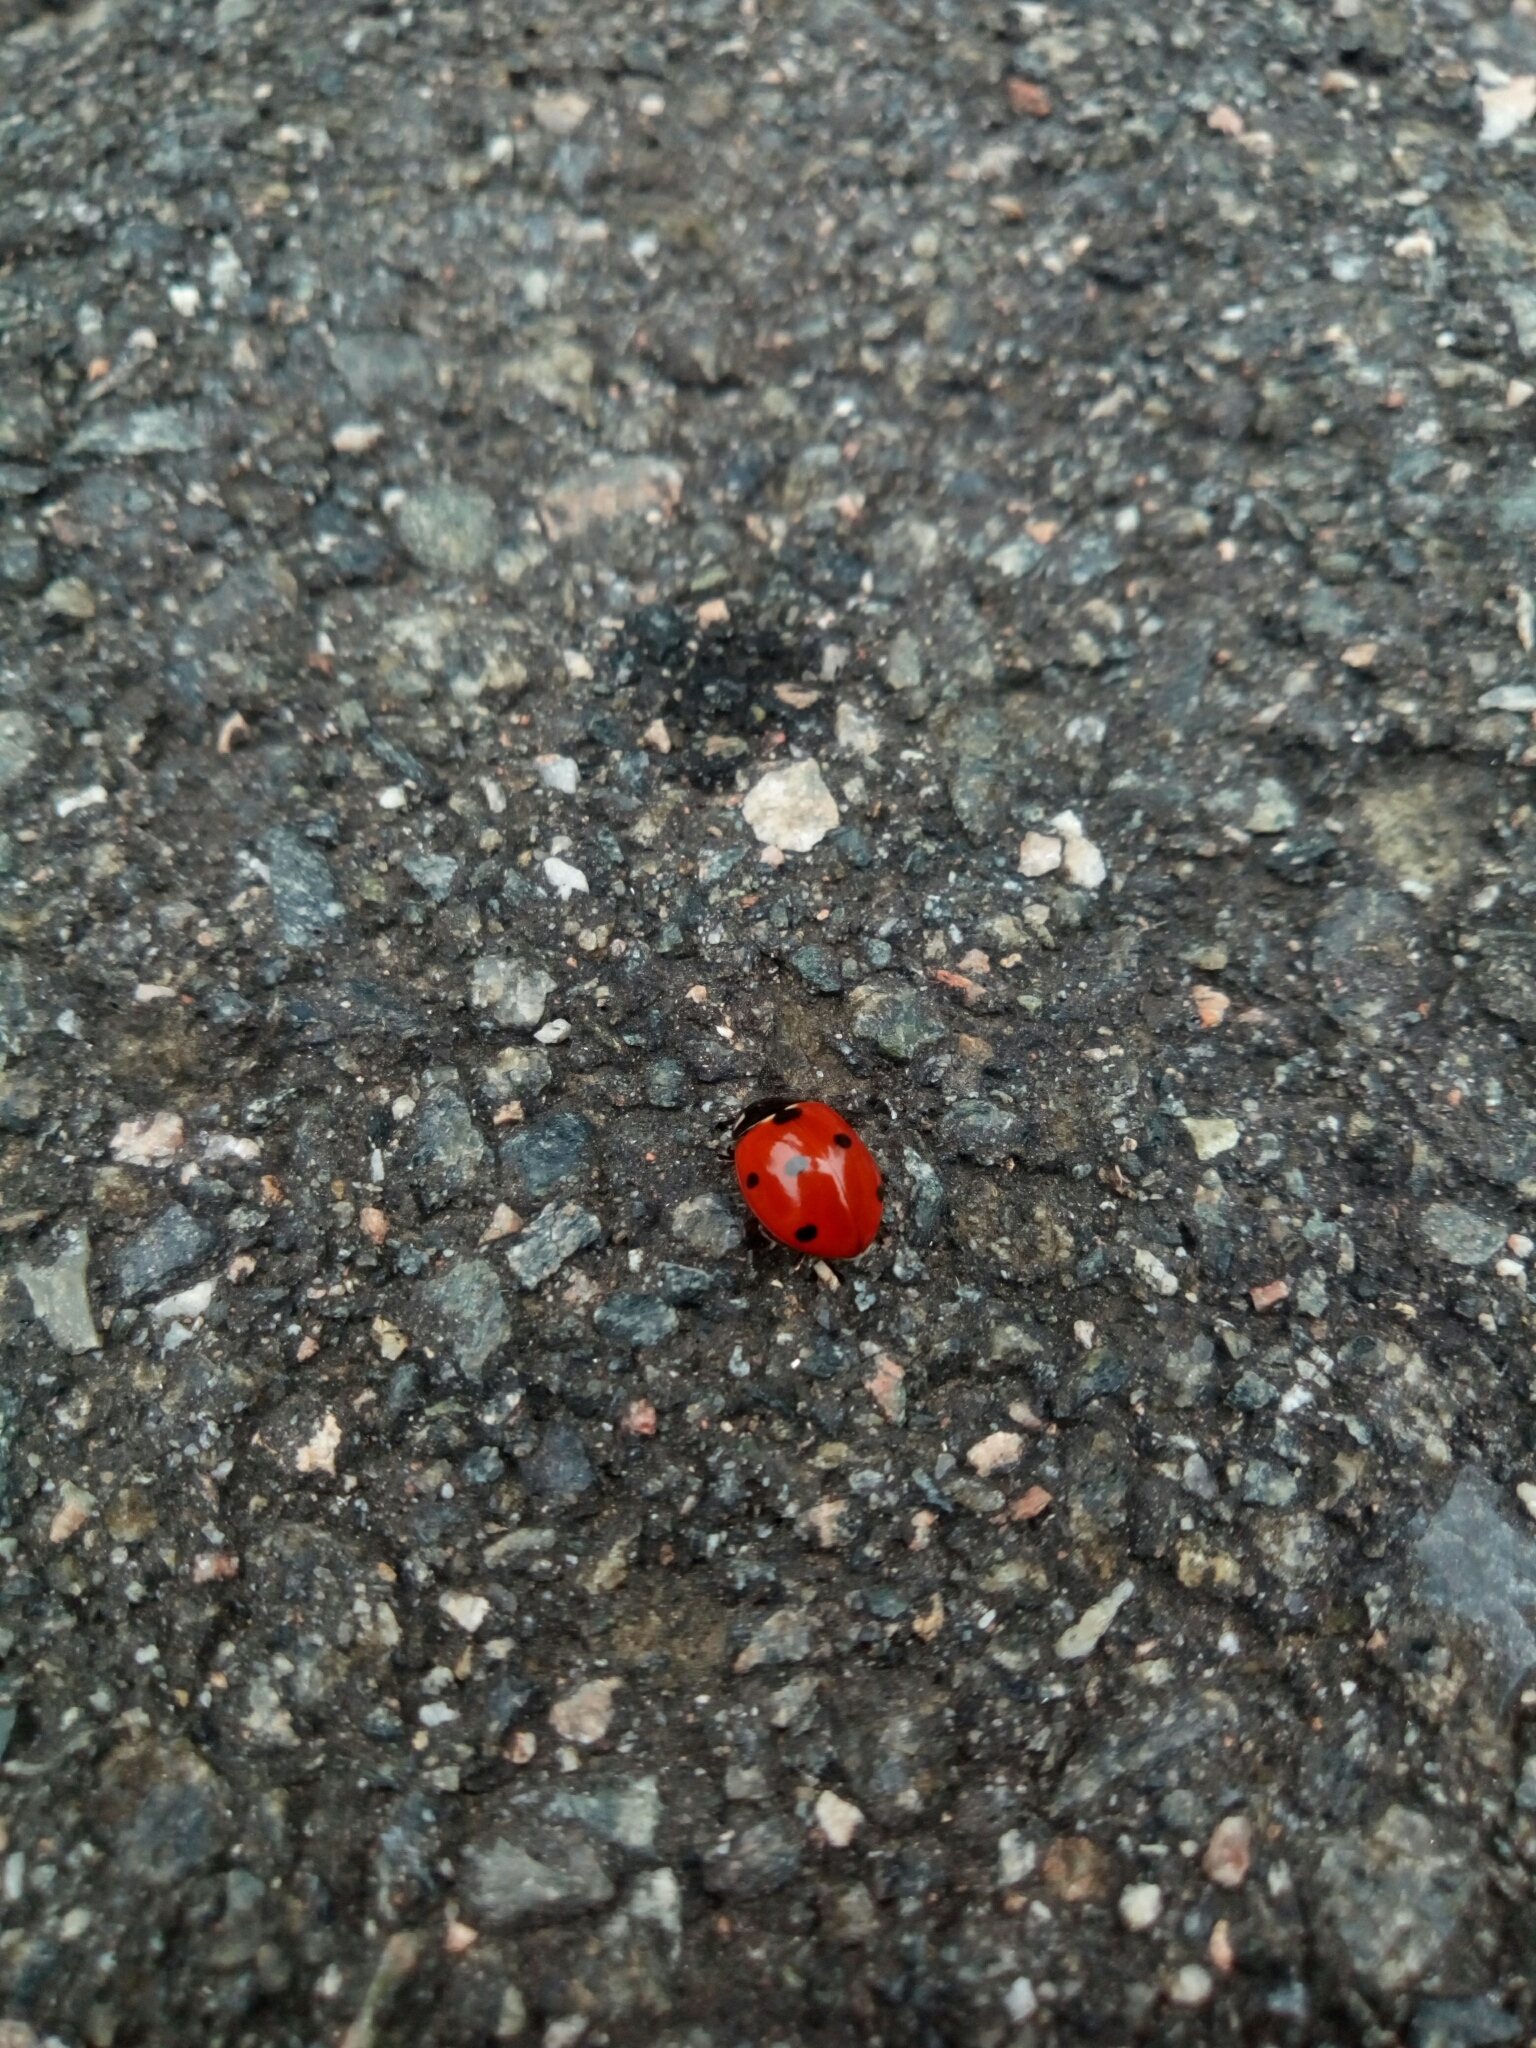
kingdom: Animalia
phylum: Arthropoda
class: Insecta
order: Coleoptera
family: Coccinellidae
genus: Coccinella
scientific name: Coccinella septempunctata
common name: Sevenspotted lady beetle
